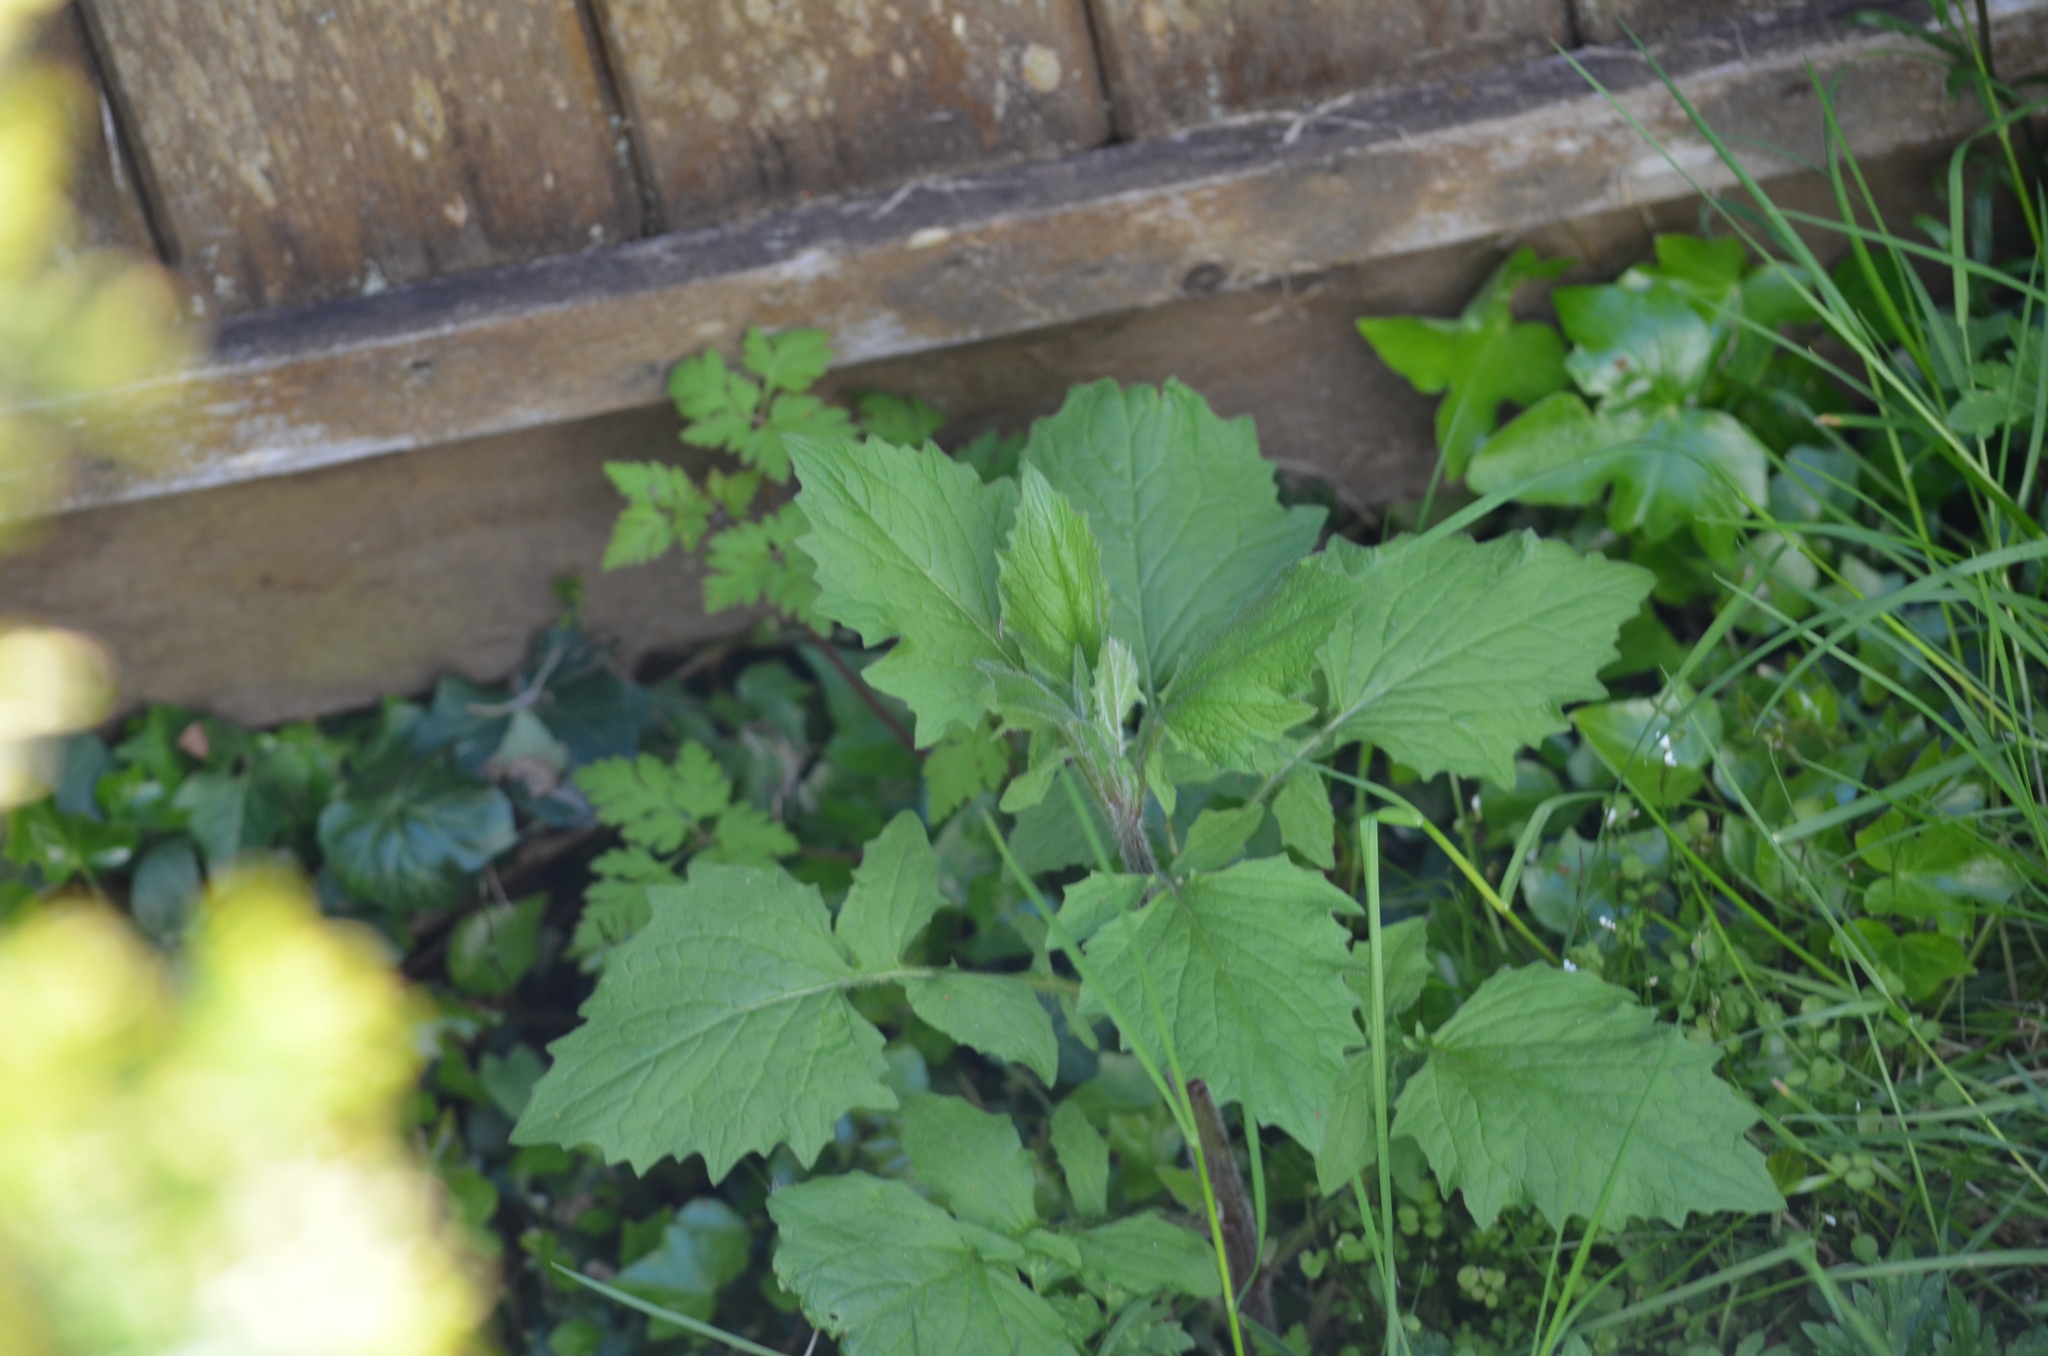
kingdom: Plantae
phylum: Tracheophyta
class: Magnoliopsida
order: Asterales
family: Asteraceae
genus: Lapsana
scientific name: Lapsana communis
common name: Nipplewort
